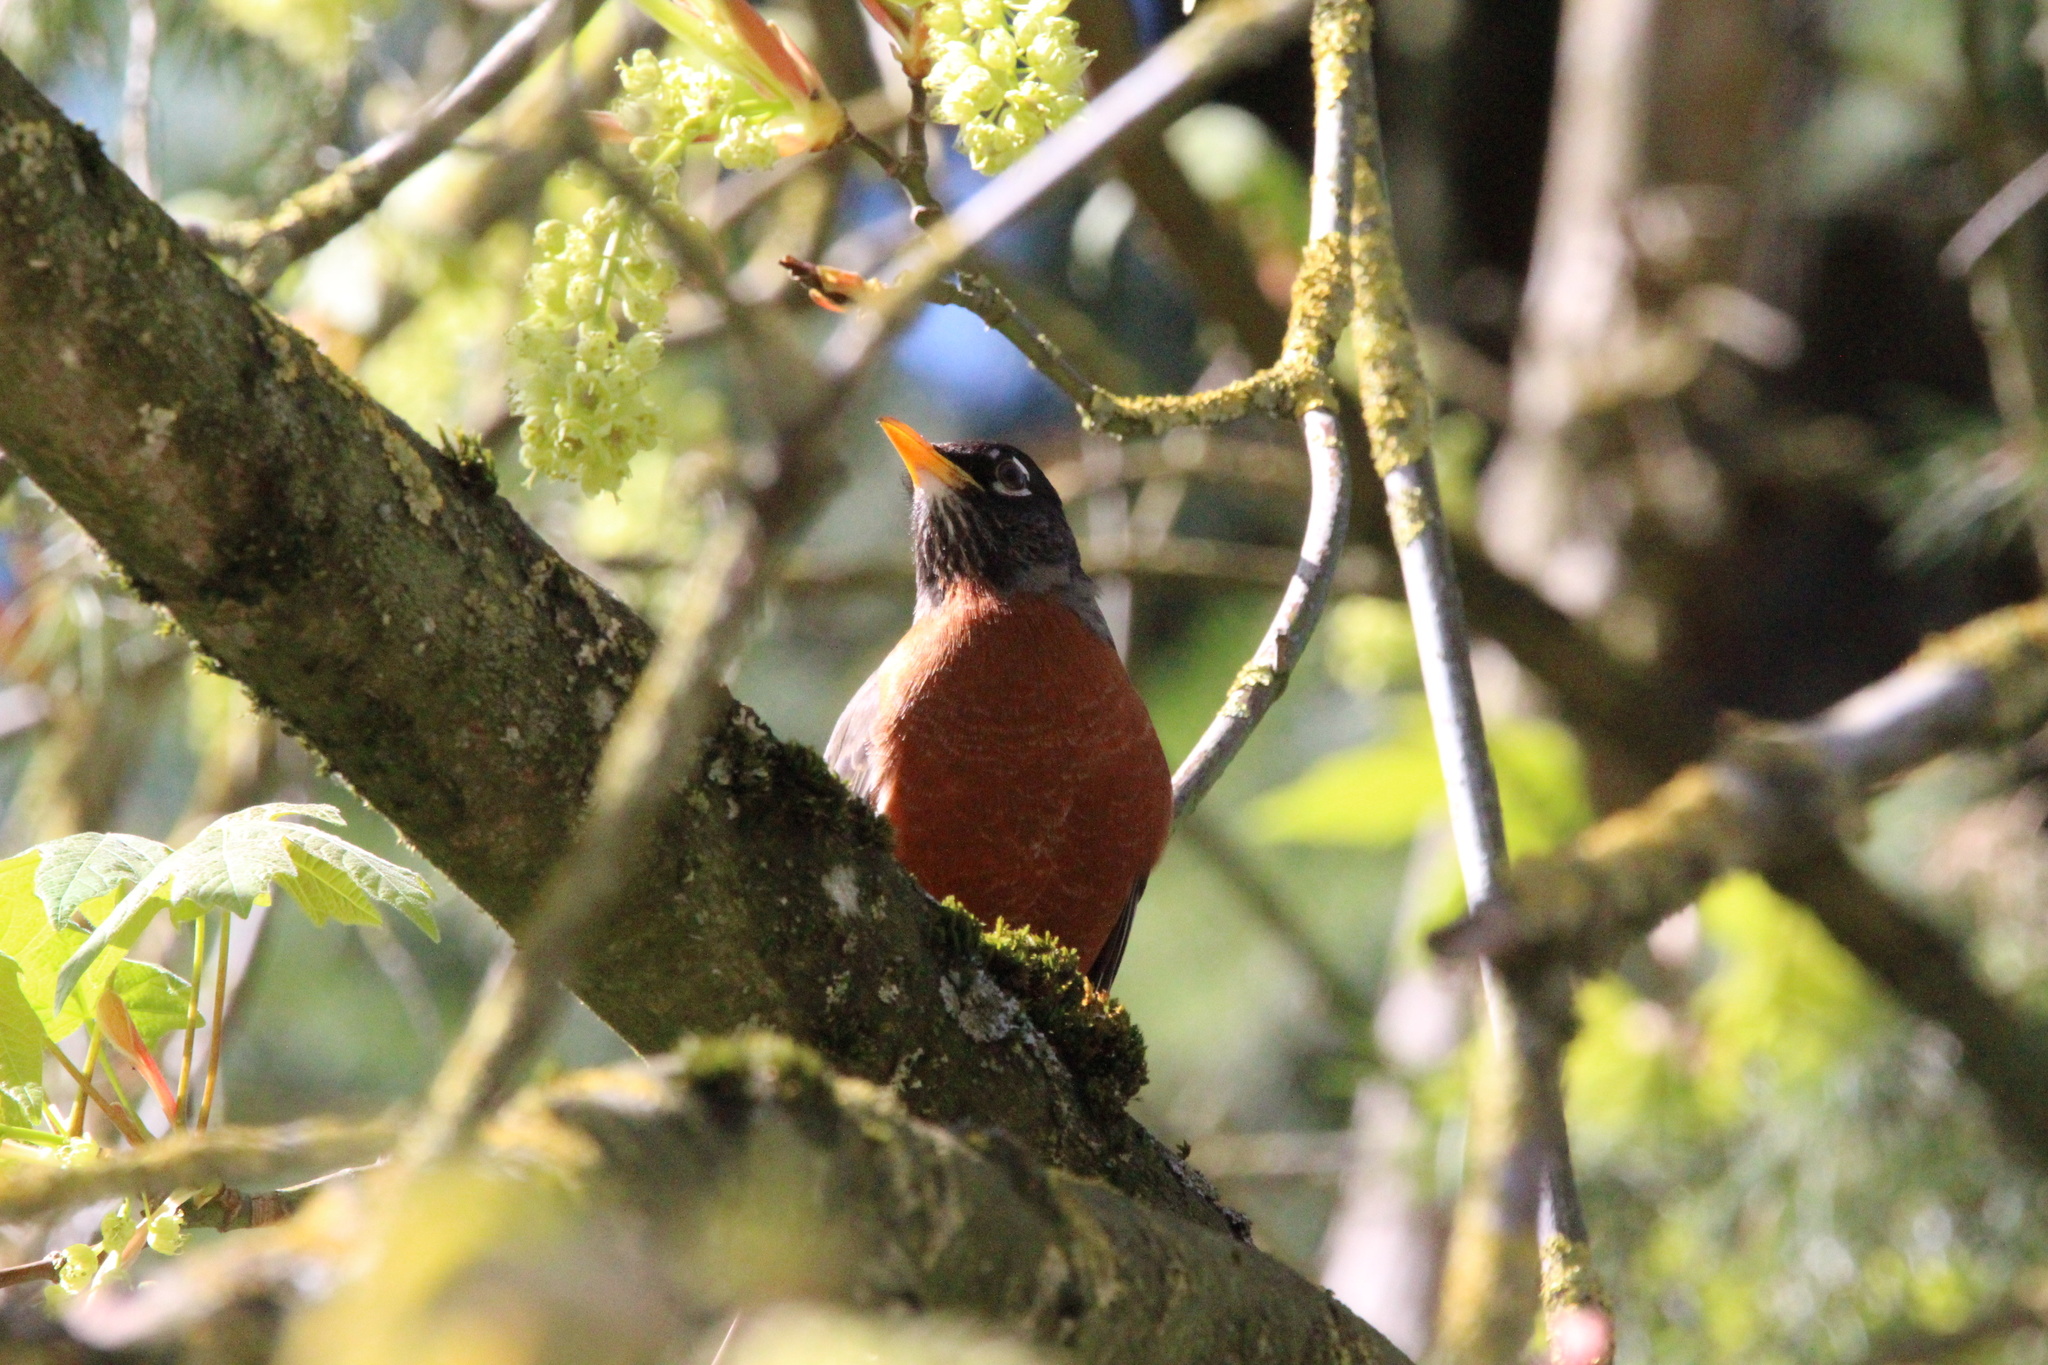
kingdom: Animalia
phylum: Chordata
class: Aves
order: Passeriformes
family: Turdidae
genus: Turdus
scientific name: Turdus migratorius
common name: American robin
